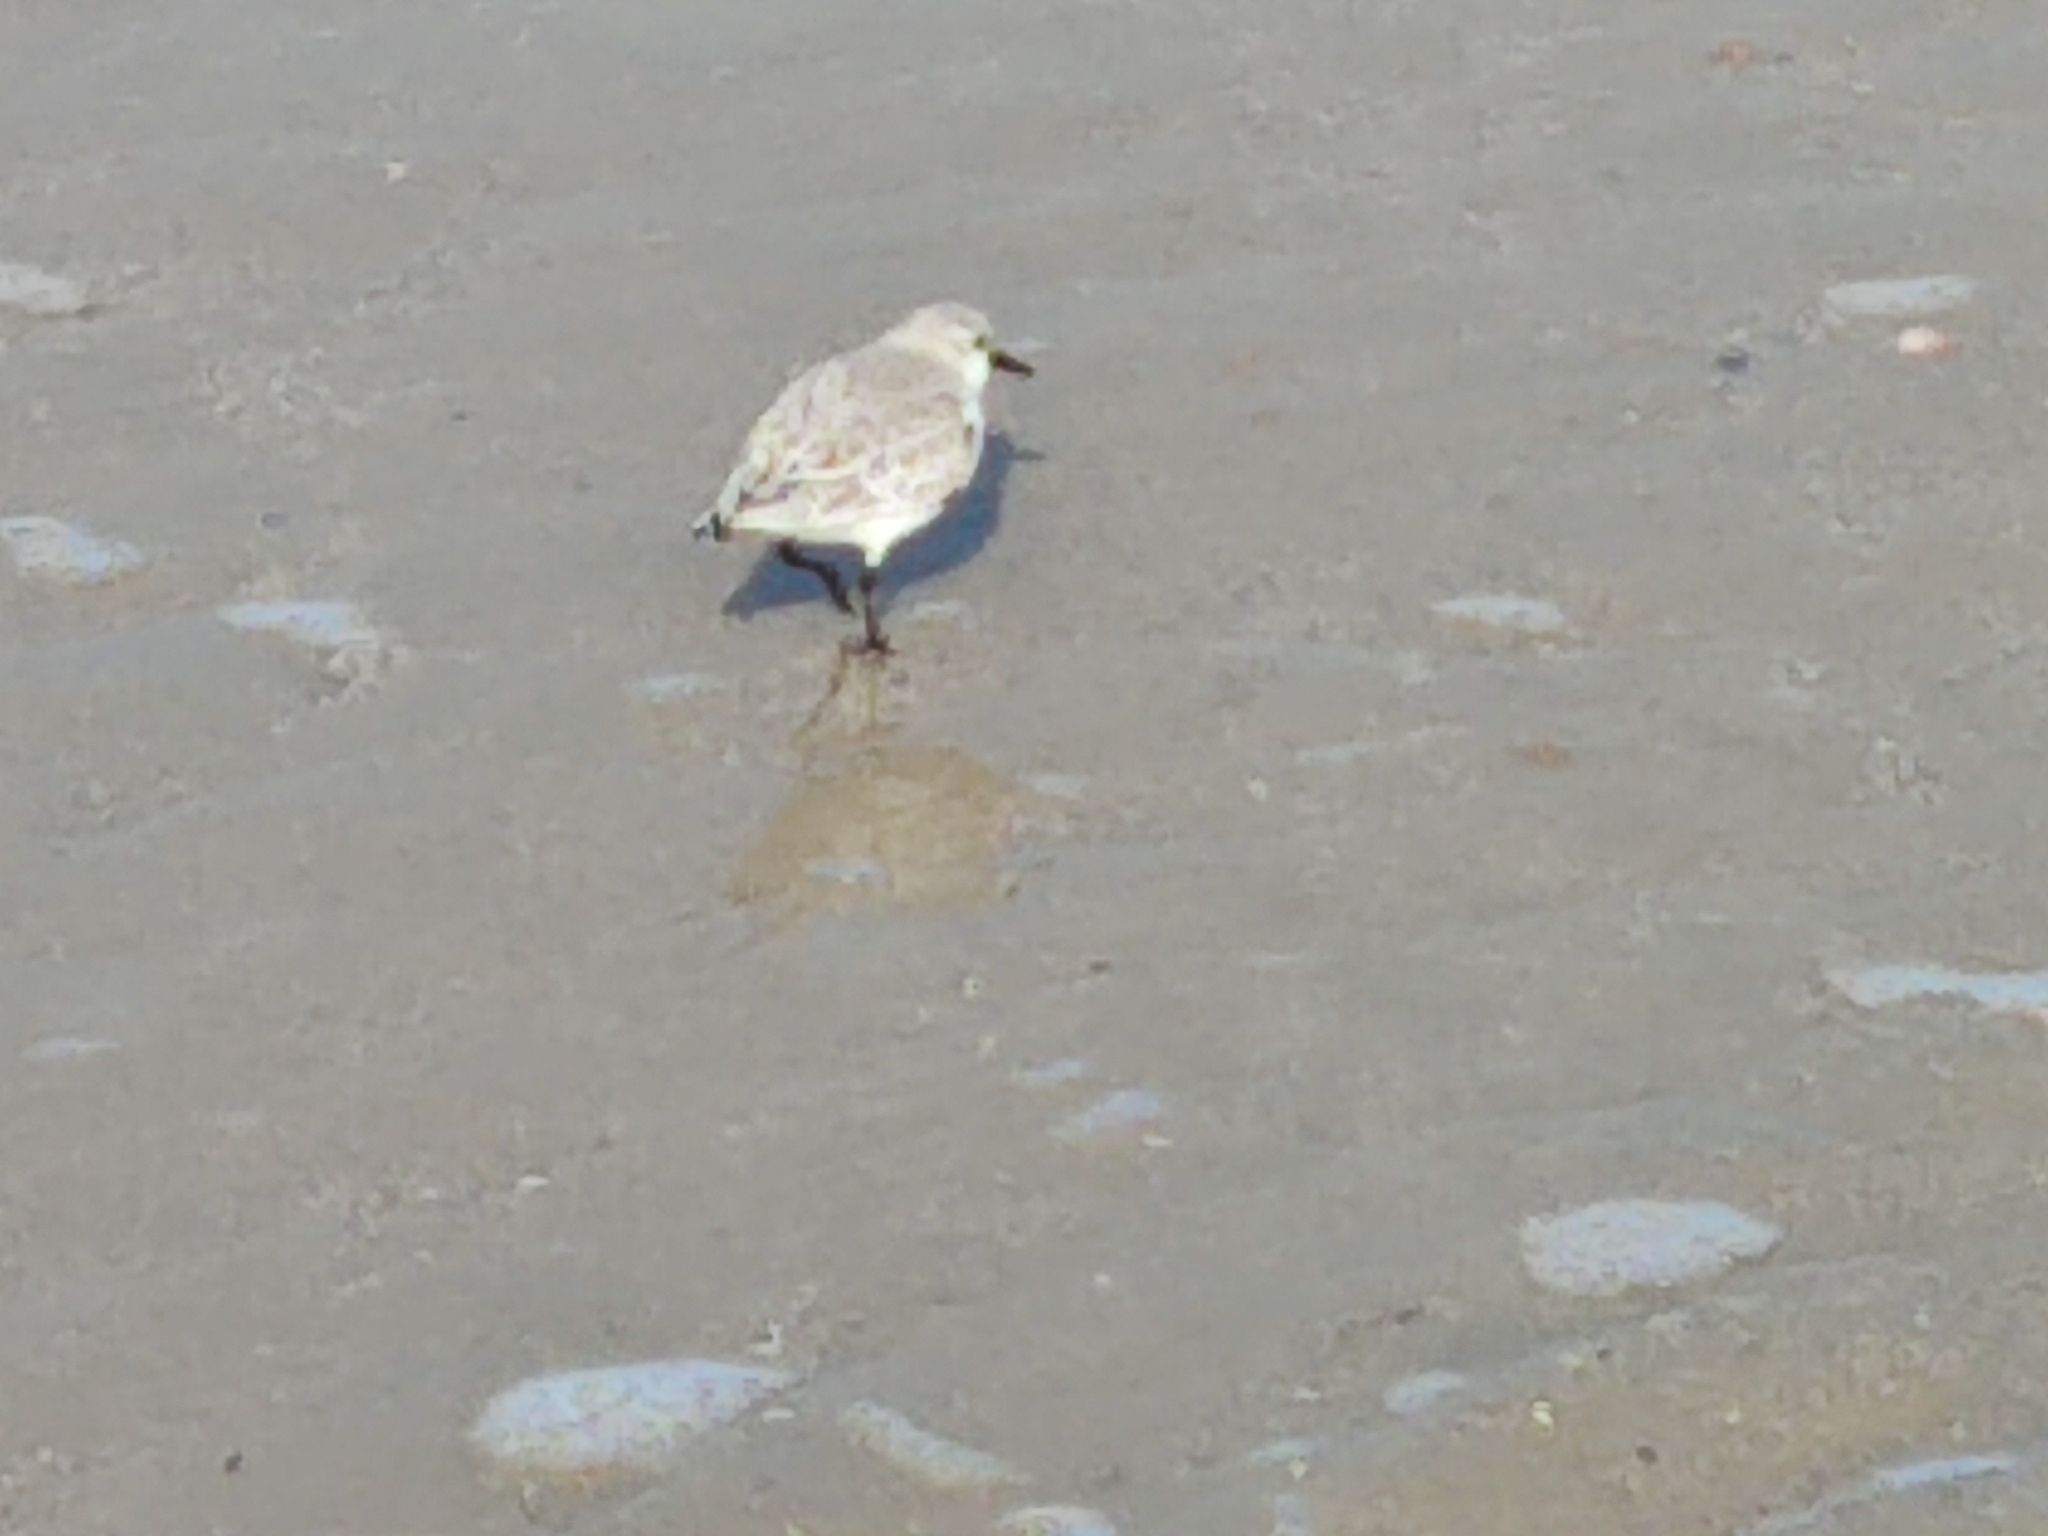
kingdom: Animalia
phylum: Chordata
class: Aves
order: Charadriiformes
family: Scolopacidae
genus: Calidris
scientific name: Calidris alba
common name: Sanderling
